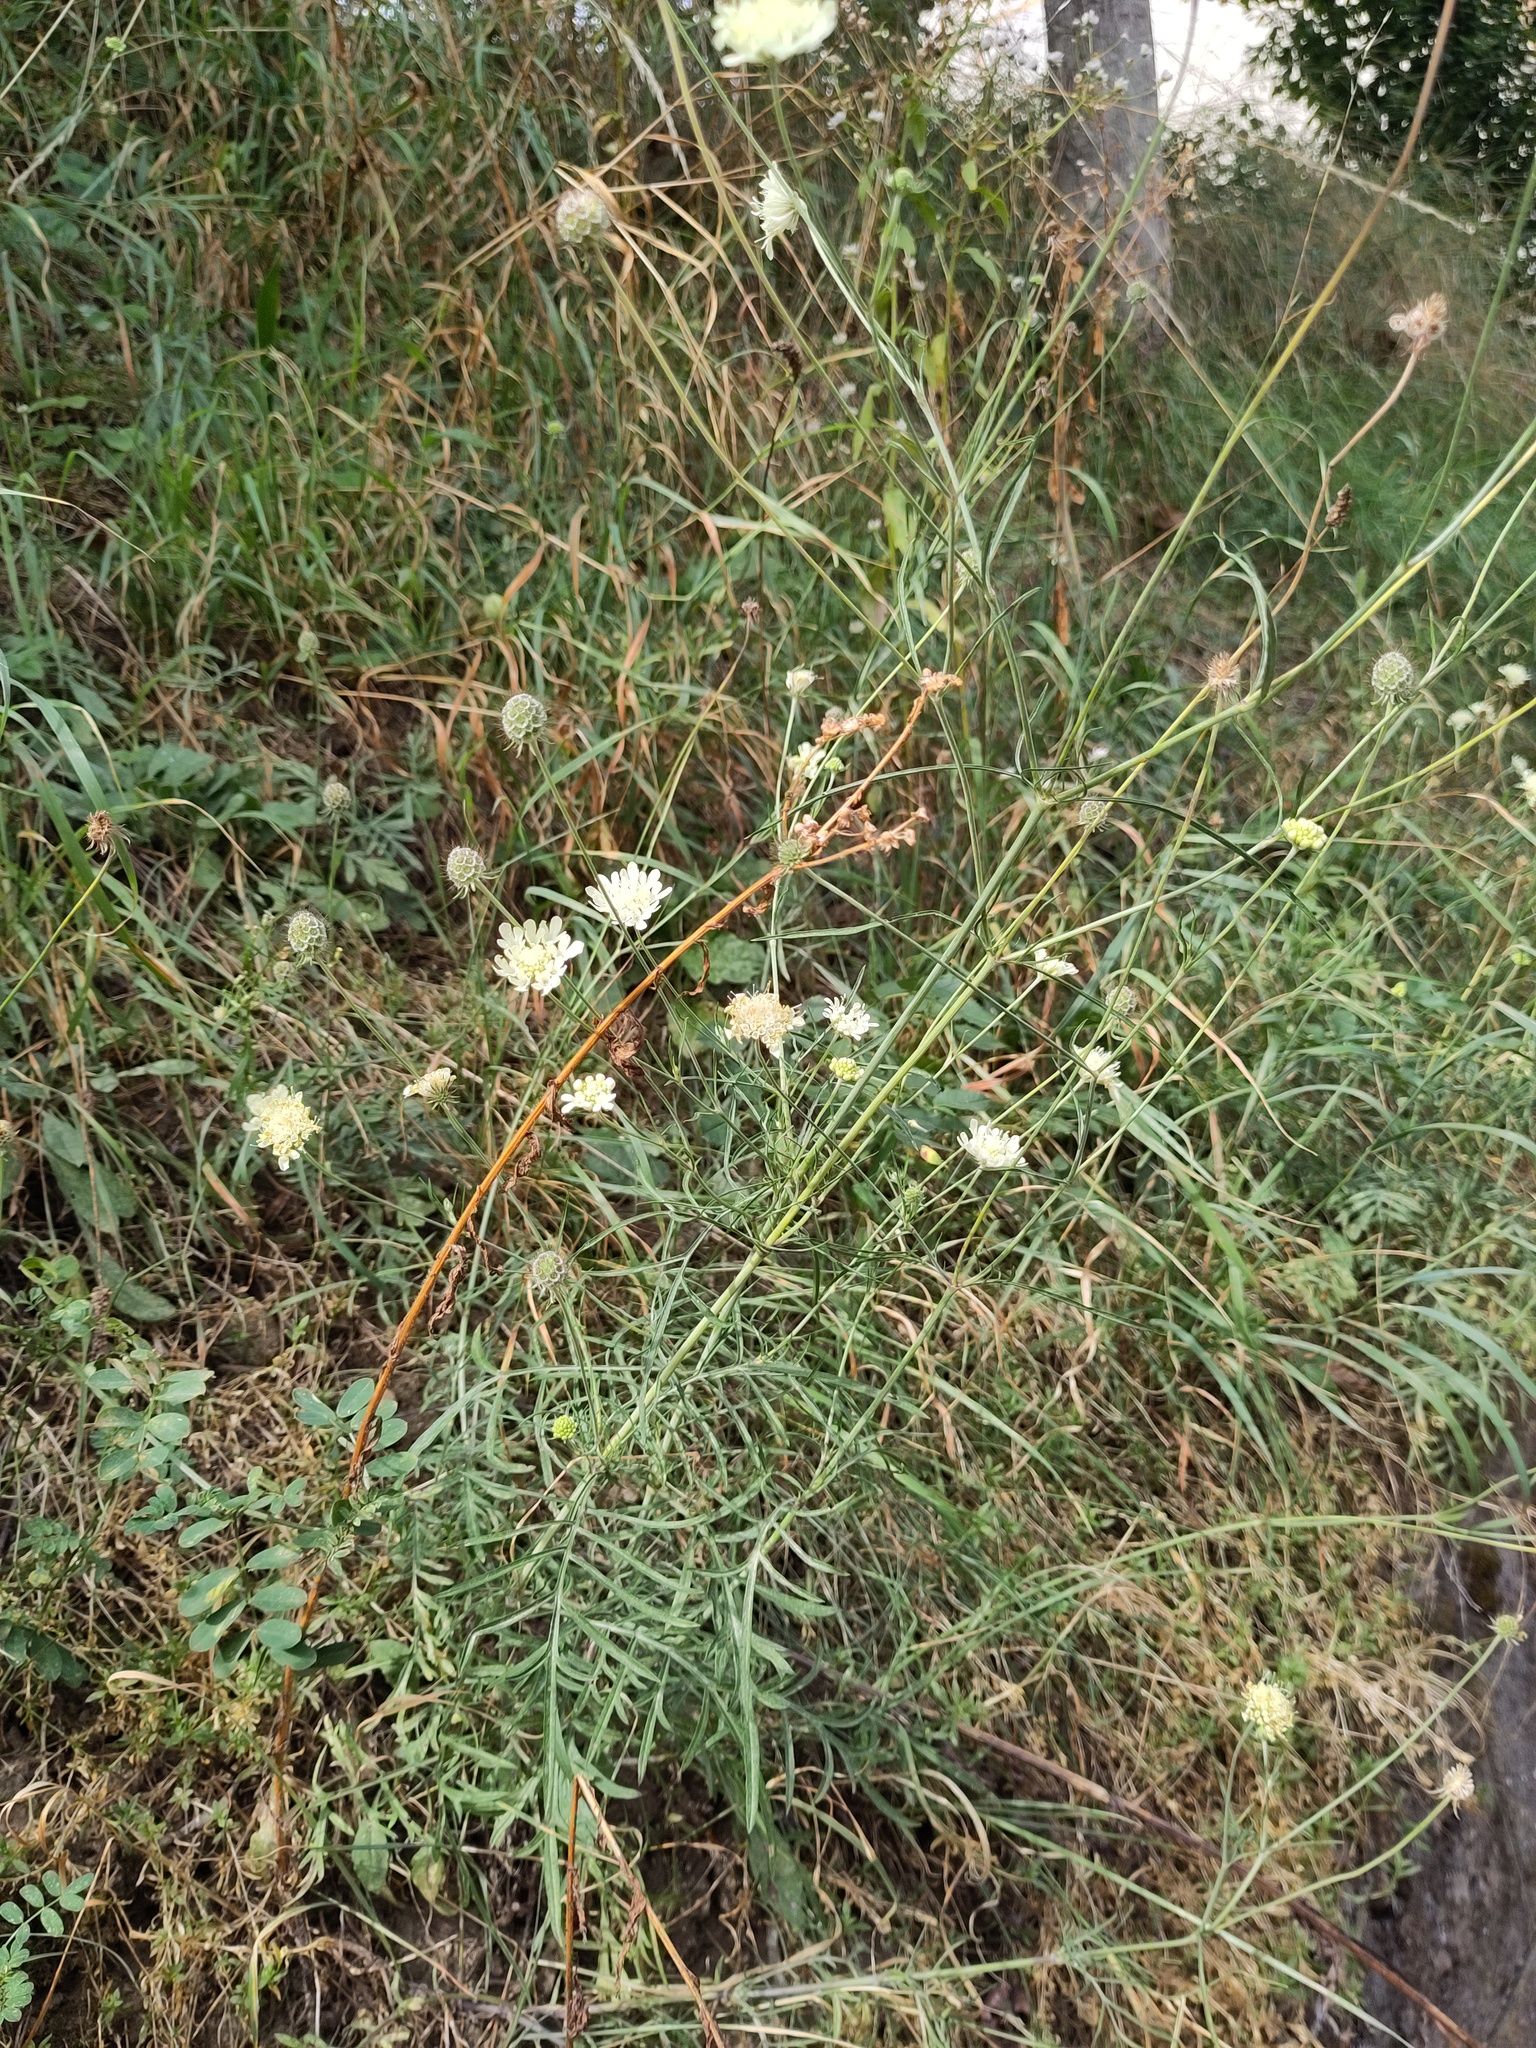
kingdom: Plantae
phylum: Tracheophyta
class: Magnoliopsida
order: Dipsacales
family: Caprifoliaceae
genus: Scabiosa
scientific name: Scabiosa ochroleuca
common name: Cream pincushions
